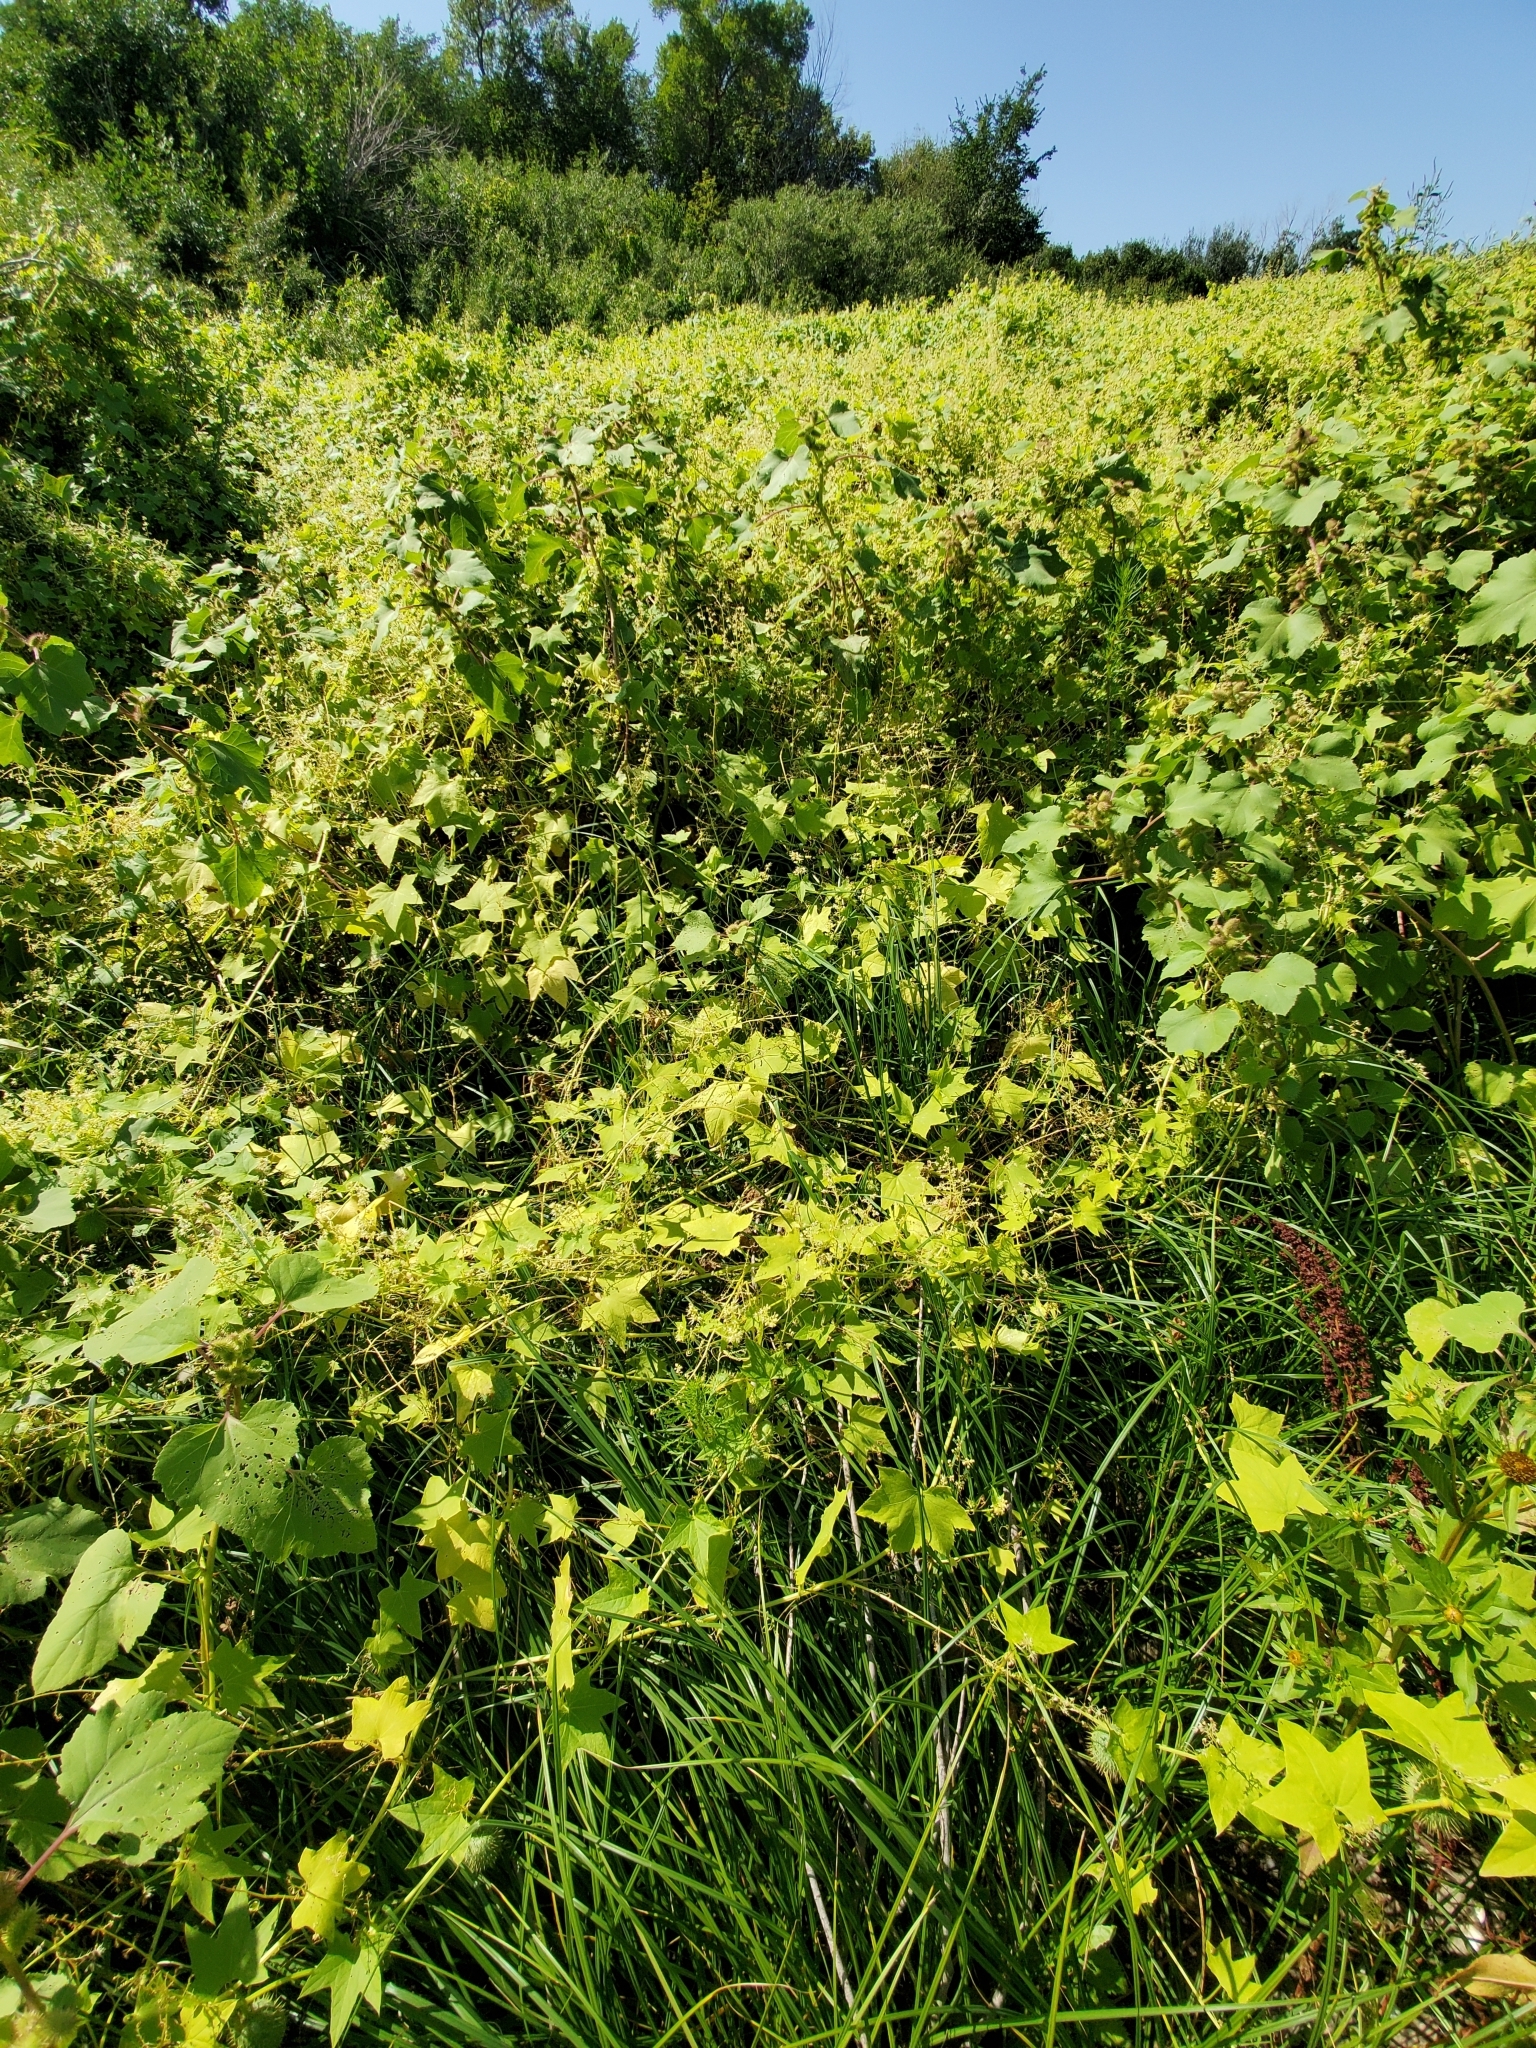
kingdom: Plantae
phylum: Tracheophyta
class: Magnoliopsida
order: Cucurbitales
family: Cucurbitaceae
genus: Echinocystis
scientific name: Echinocystis lobata
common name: Wild cucumber
